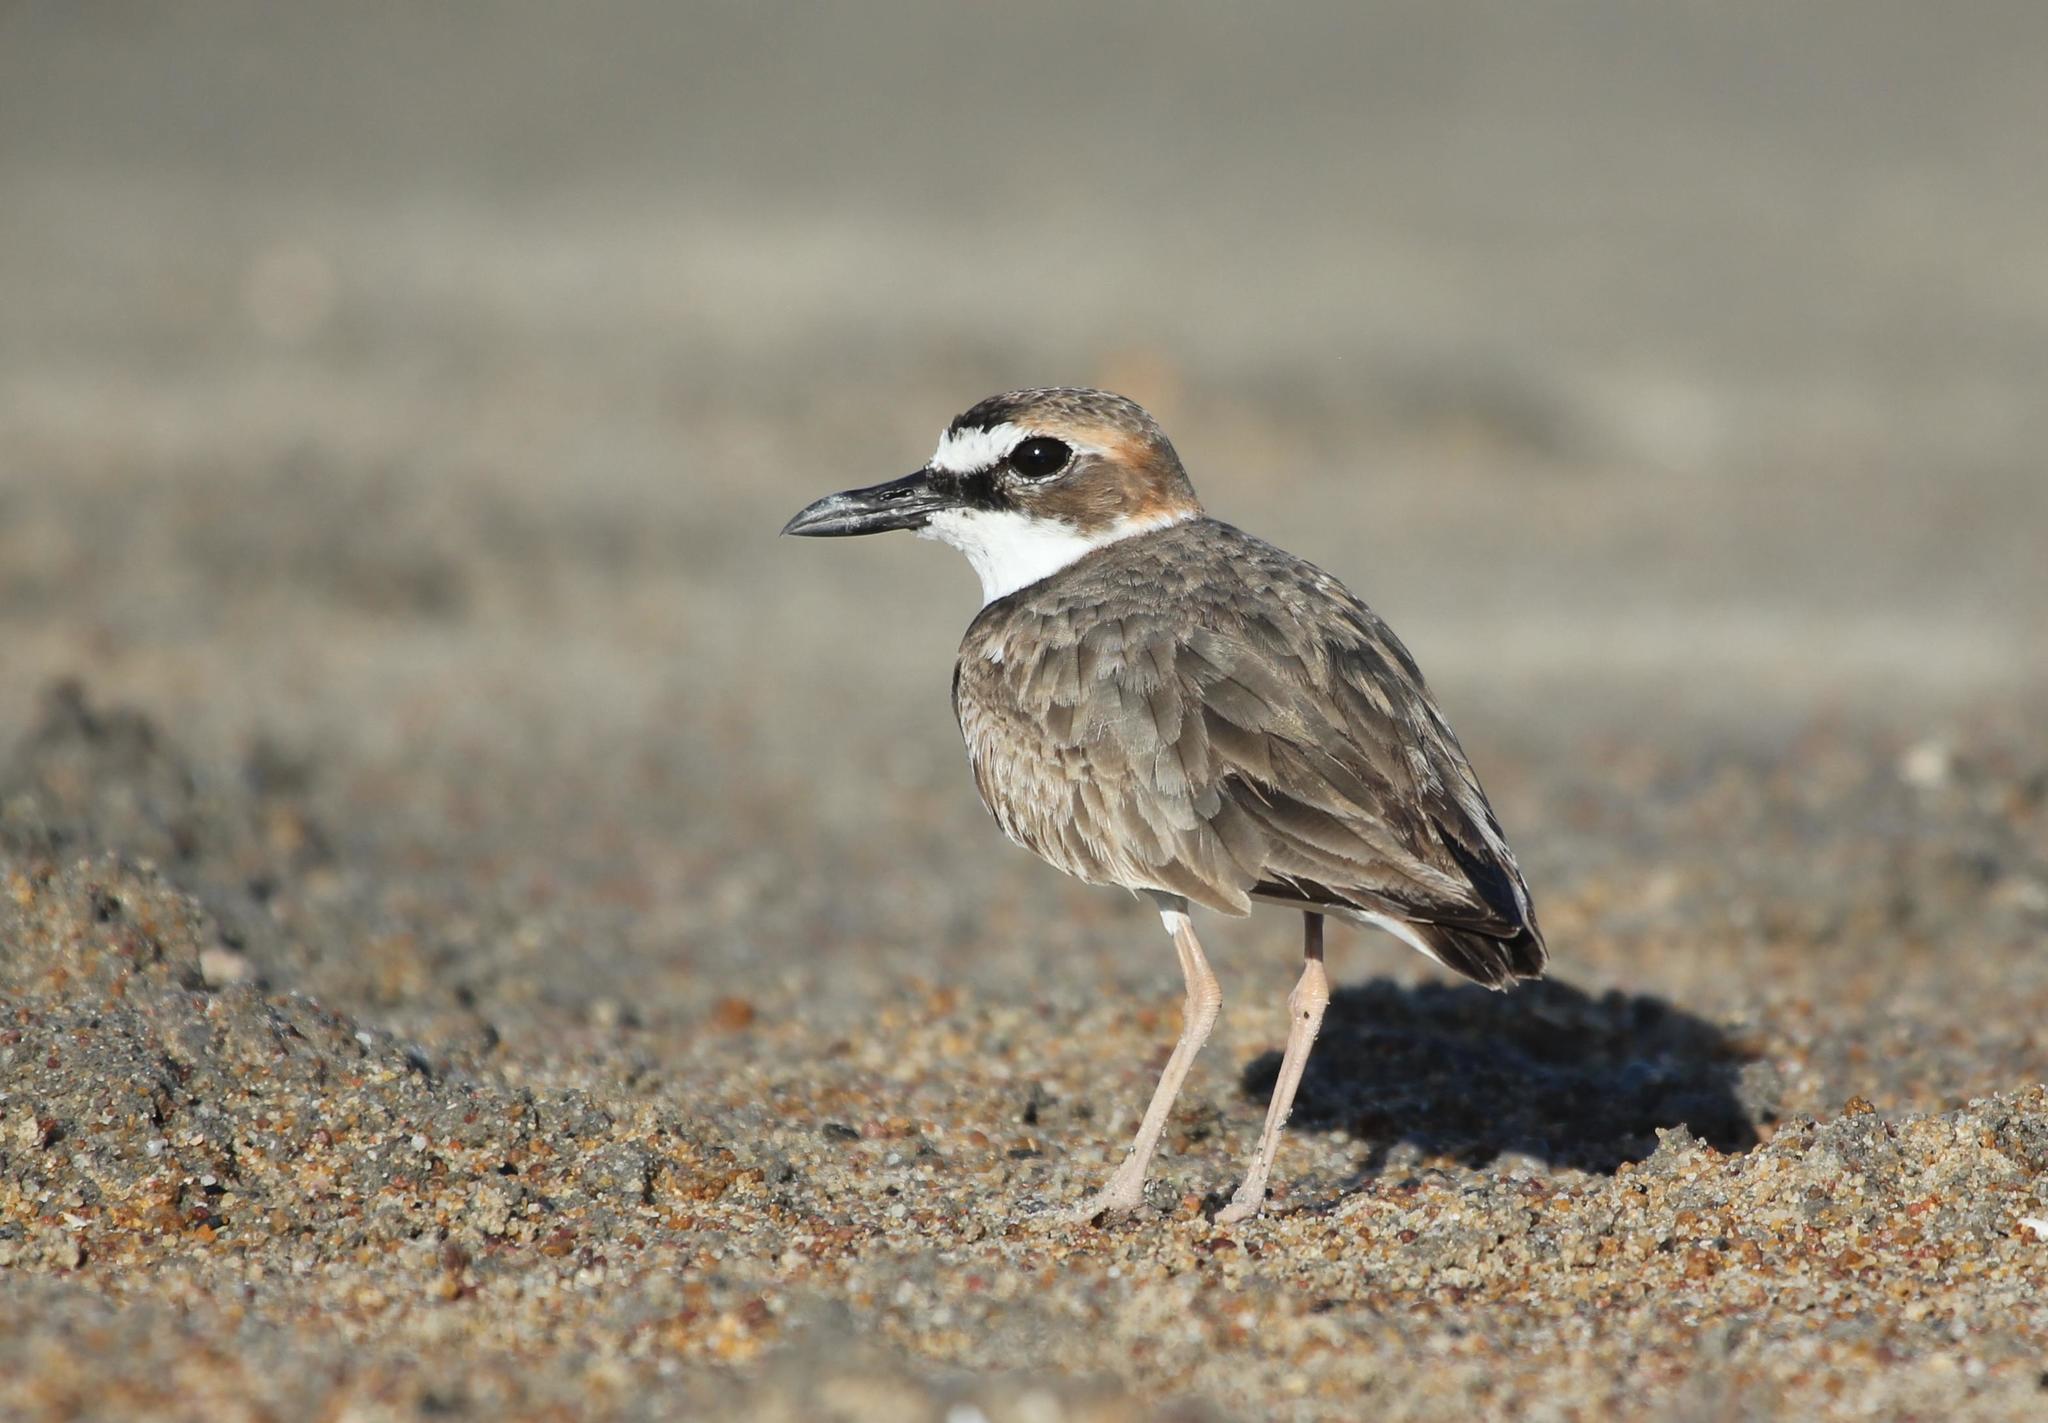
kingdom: Animalia
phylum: Chordata
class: Aves
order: Charadriiformes
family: Charadriidae
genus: Anarhynchus
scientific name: Anarhynchus
